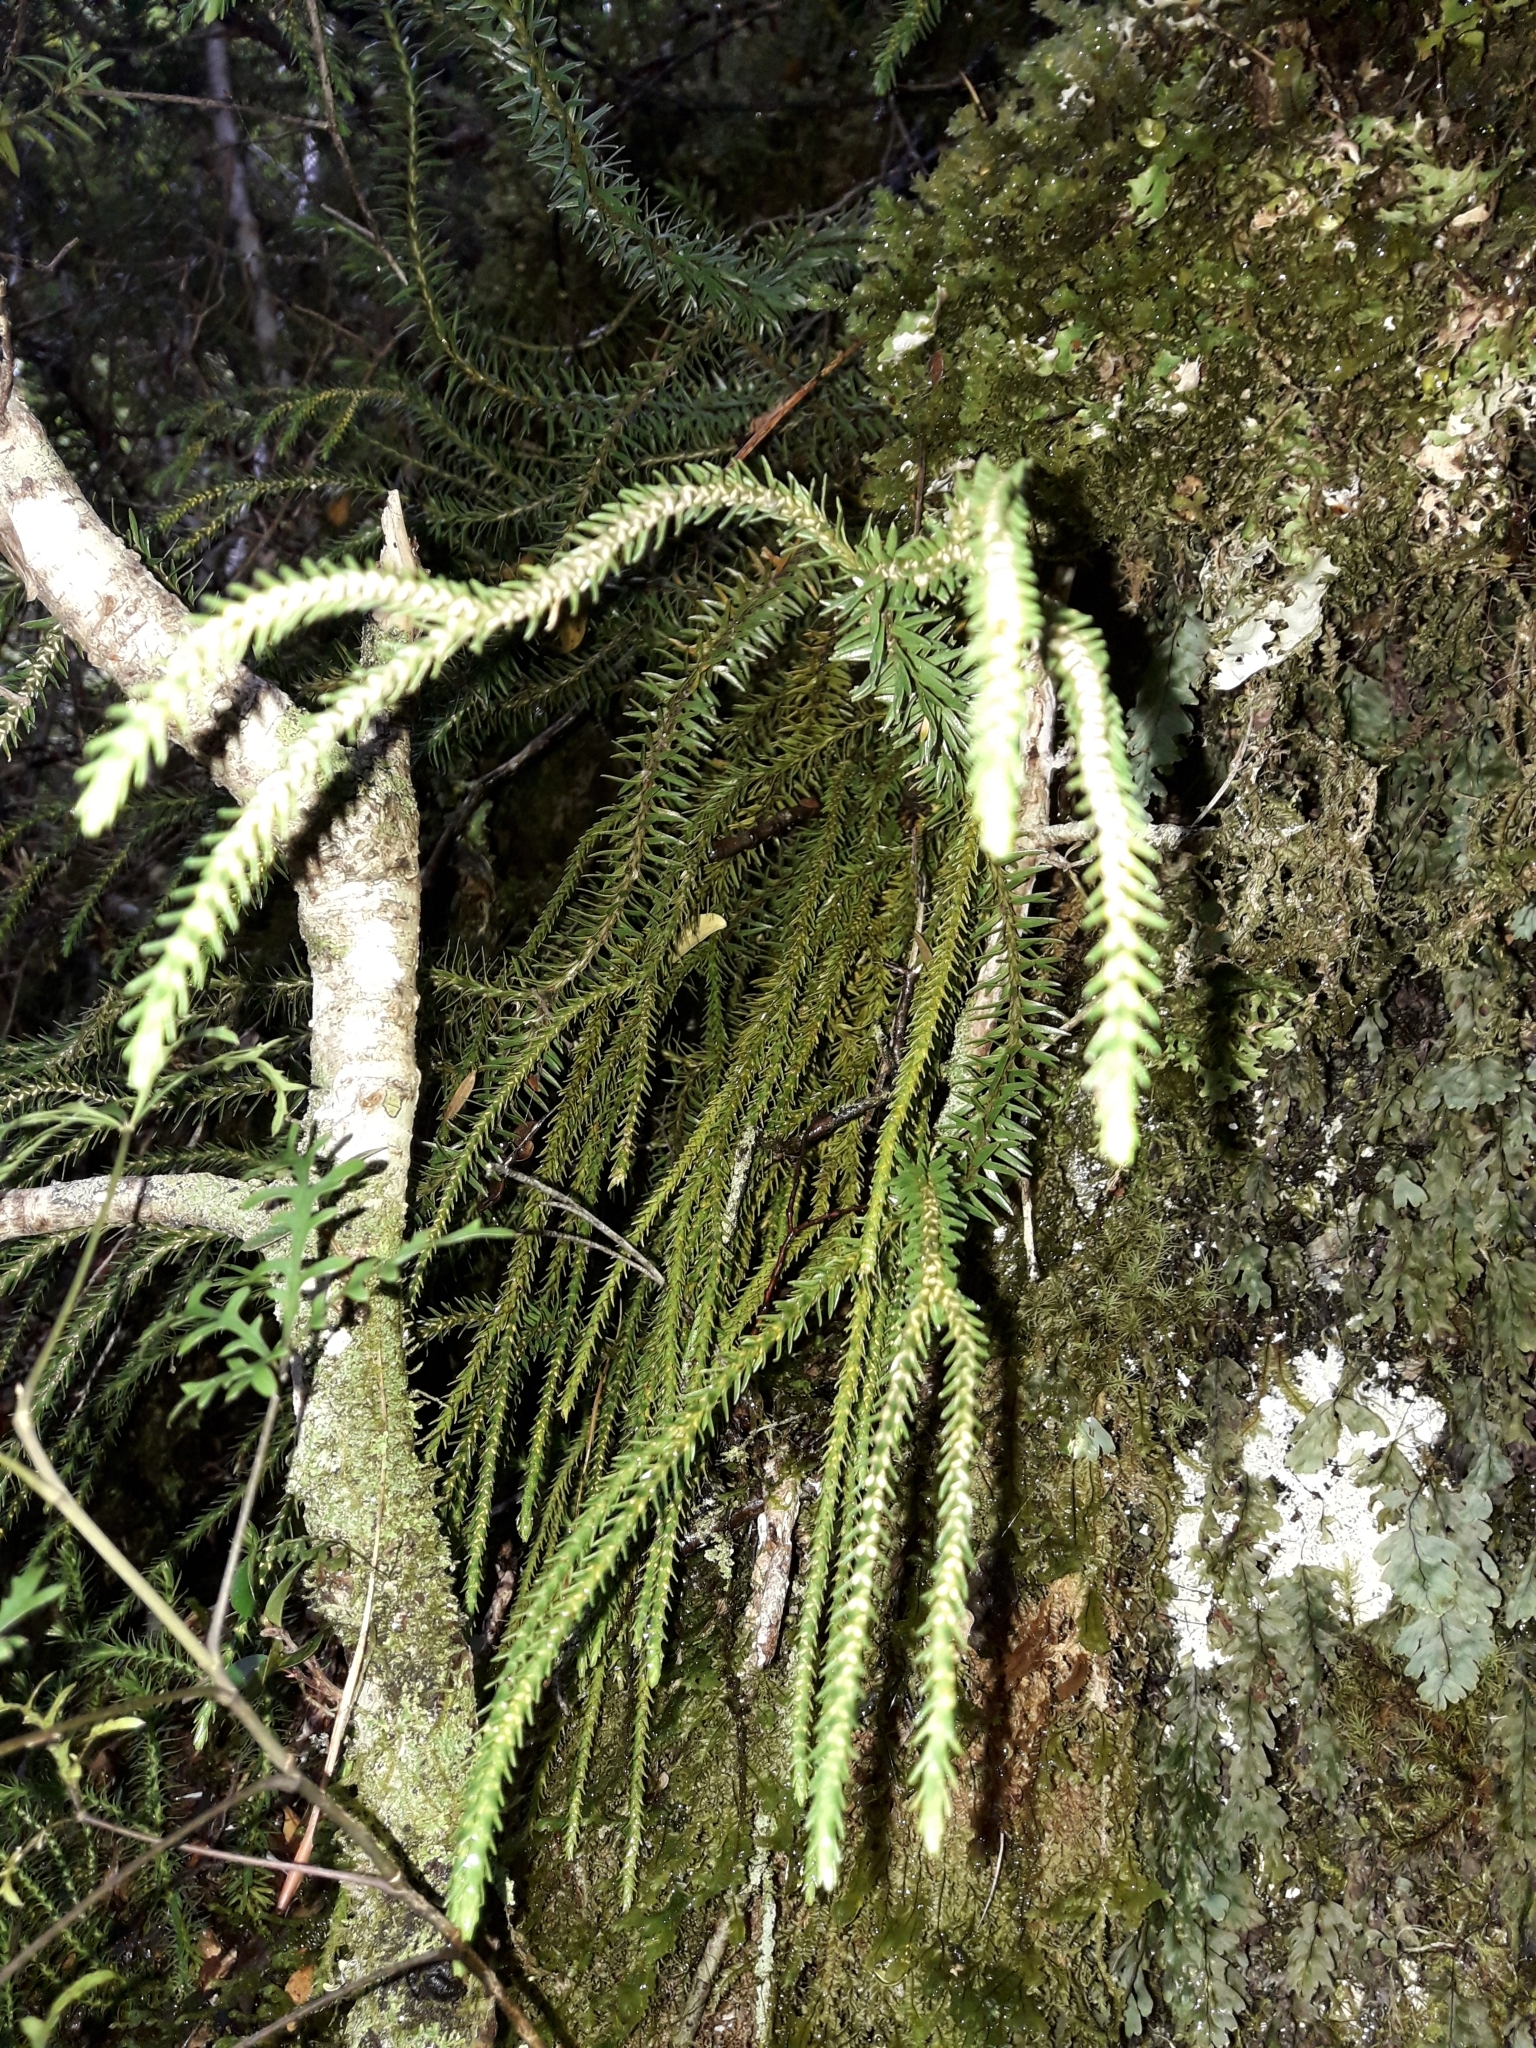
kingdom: Plantae
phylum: Tracheophyta
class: Lycopodiopsida
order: Lycopodiales
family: Lycopodiaceae
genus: Phlegmariurus
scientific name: Phlegmariurus varius
